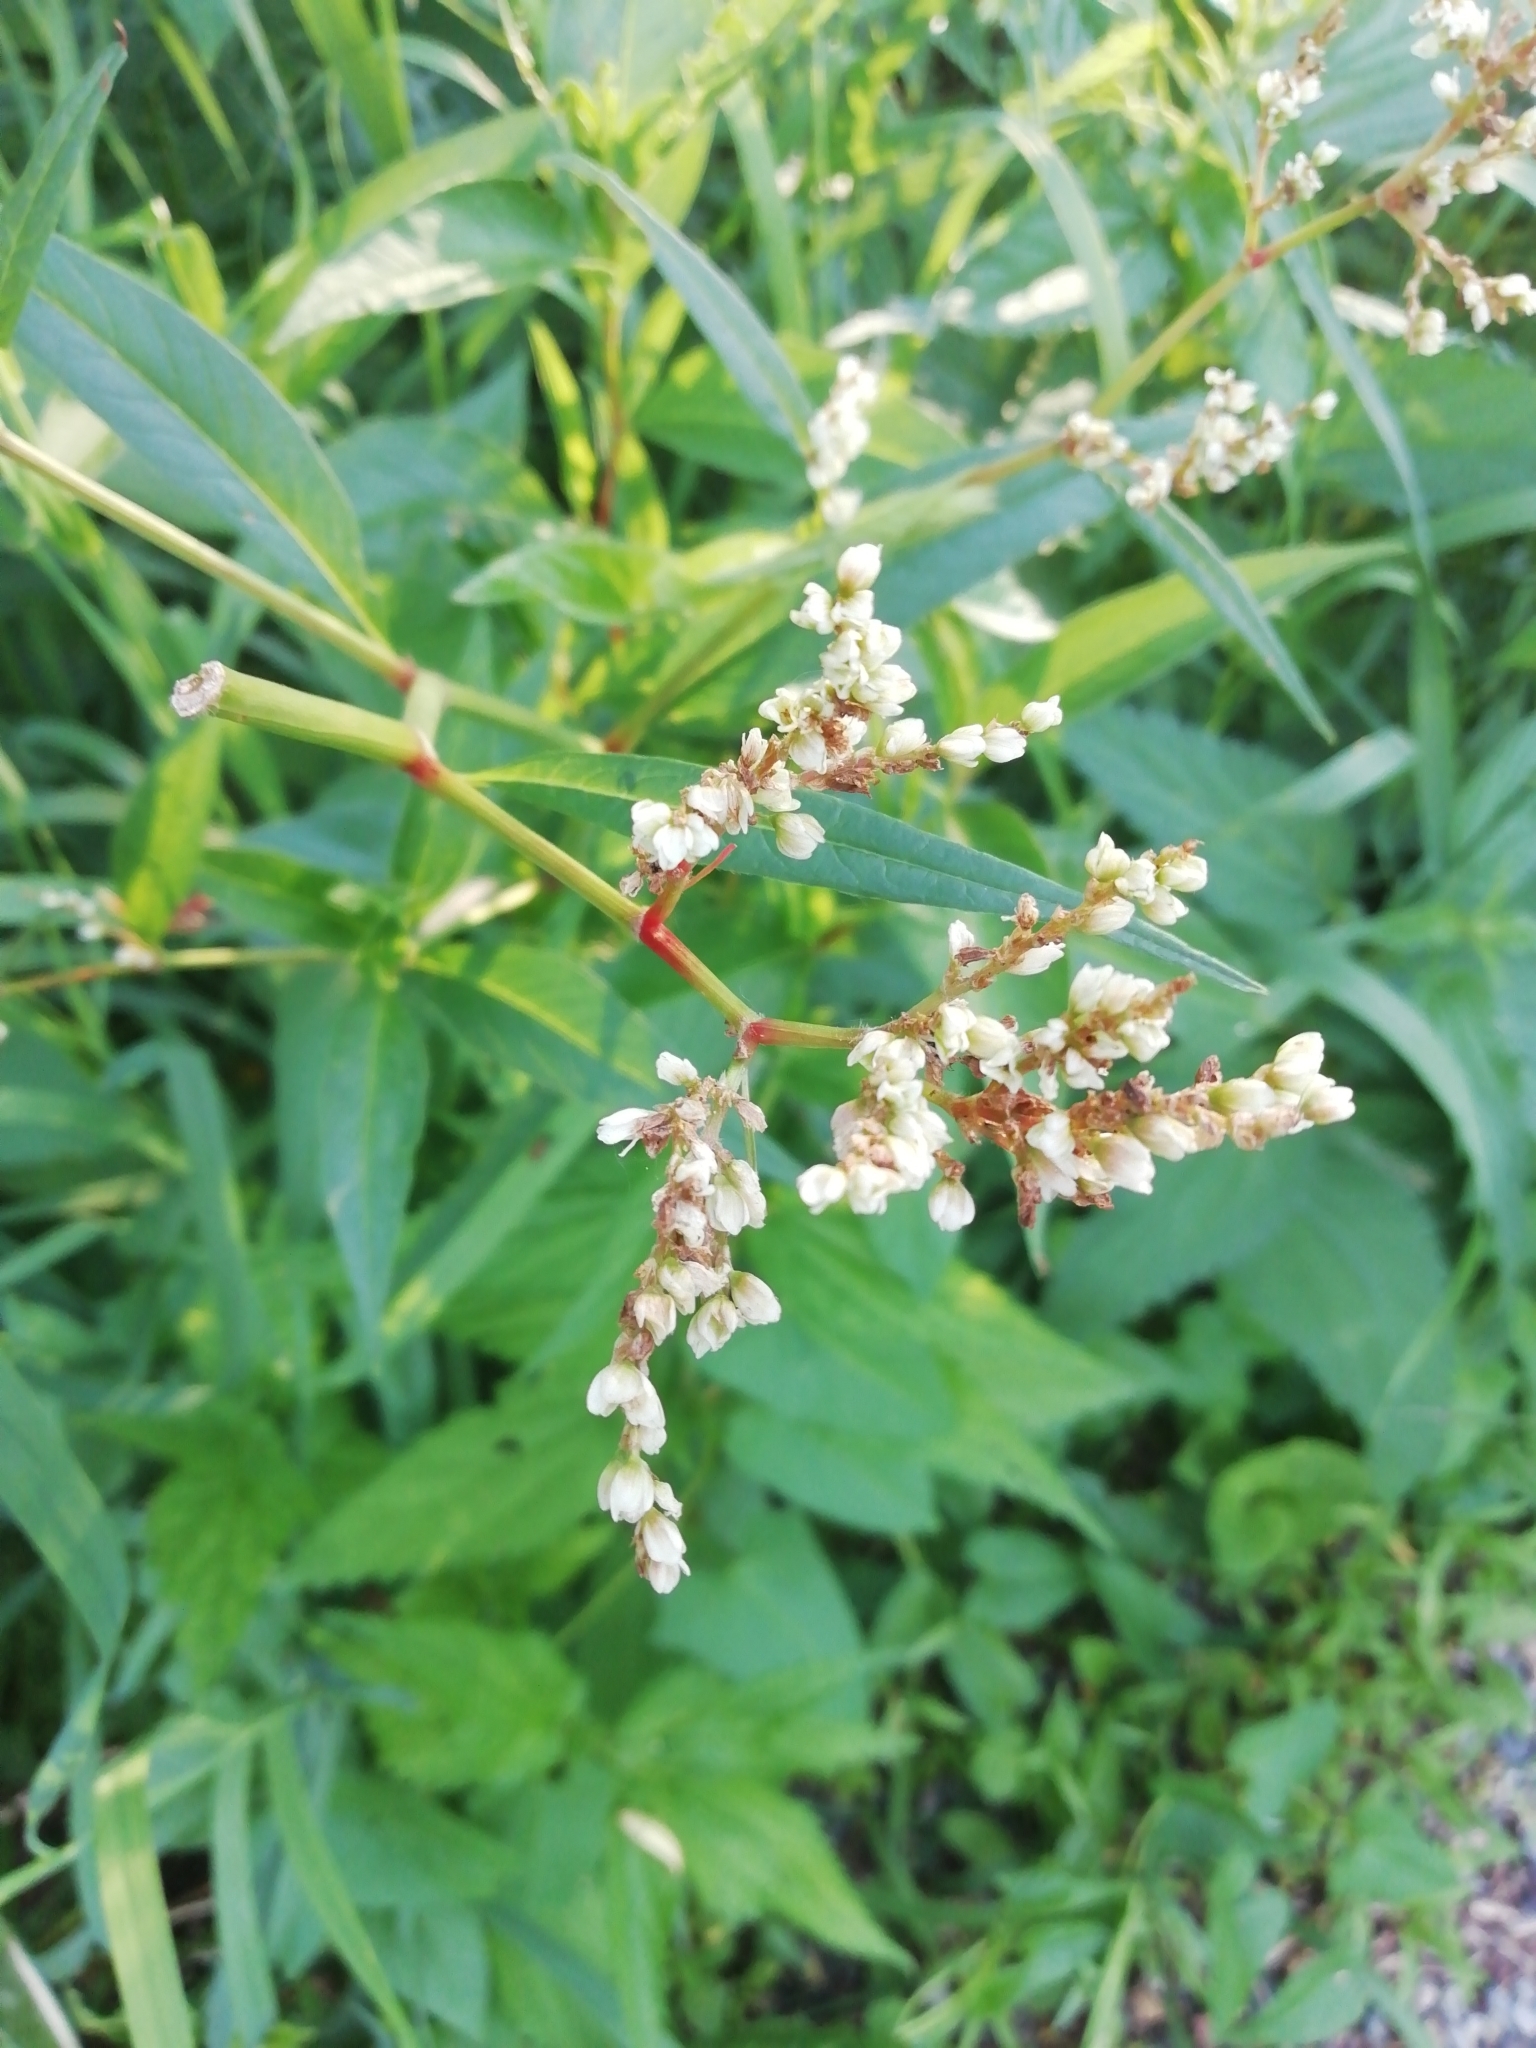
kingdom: Plantae
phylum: Tracheophyta
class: Magnoliopsida
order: Caryophyllales
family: Polygonaceae
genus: Koenigia
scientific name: Koenigia alpina
